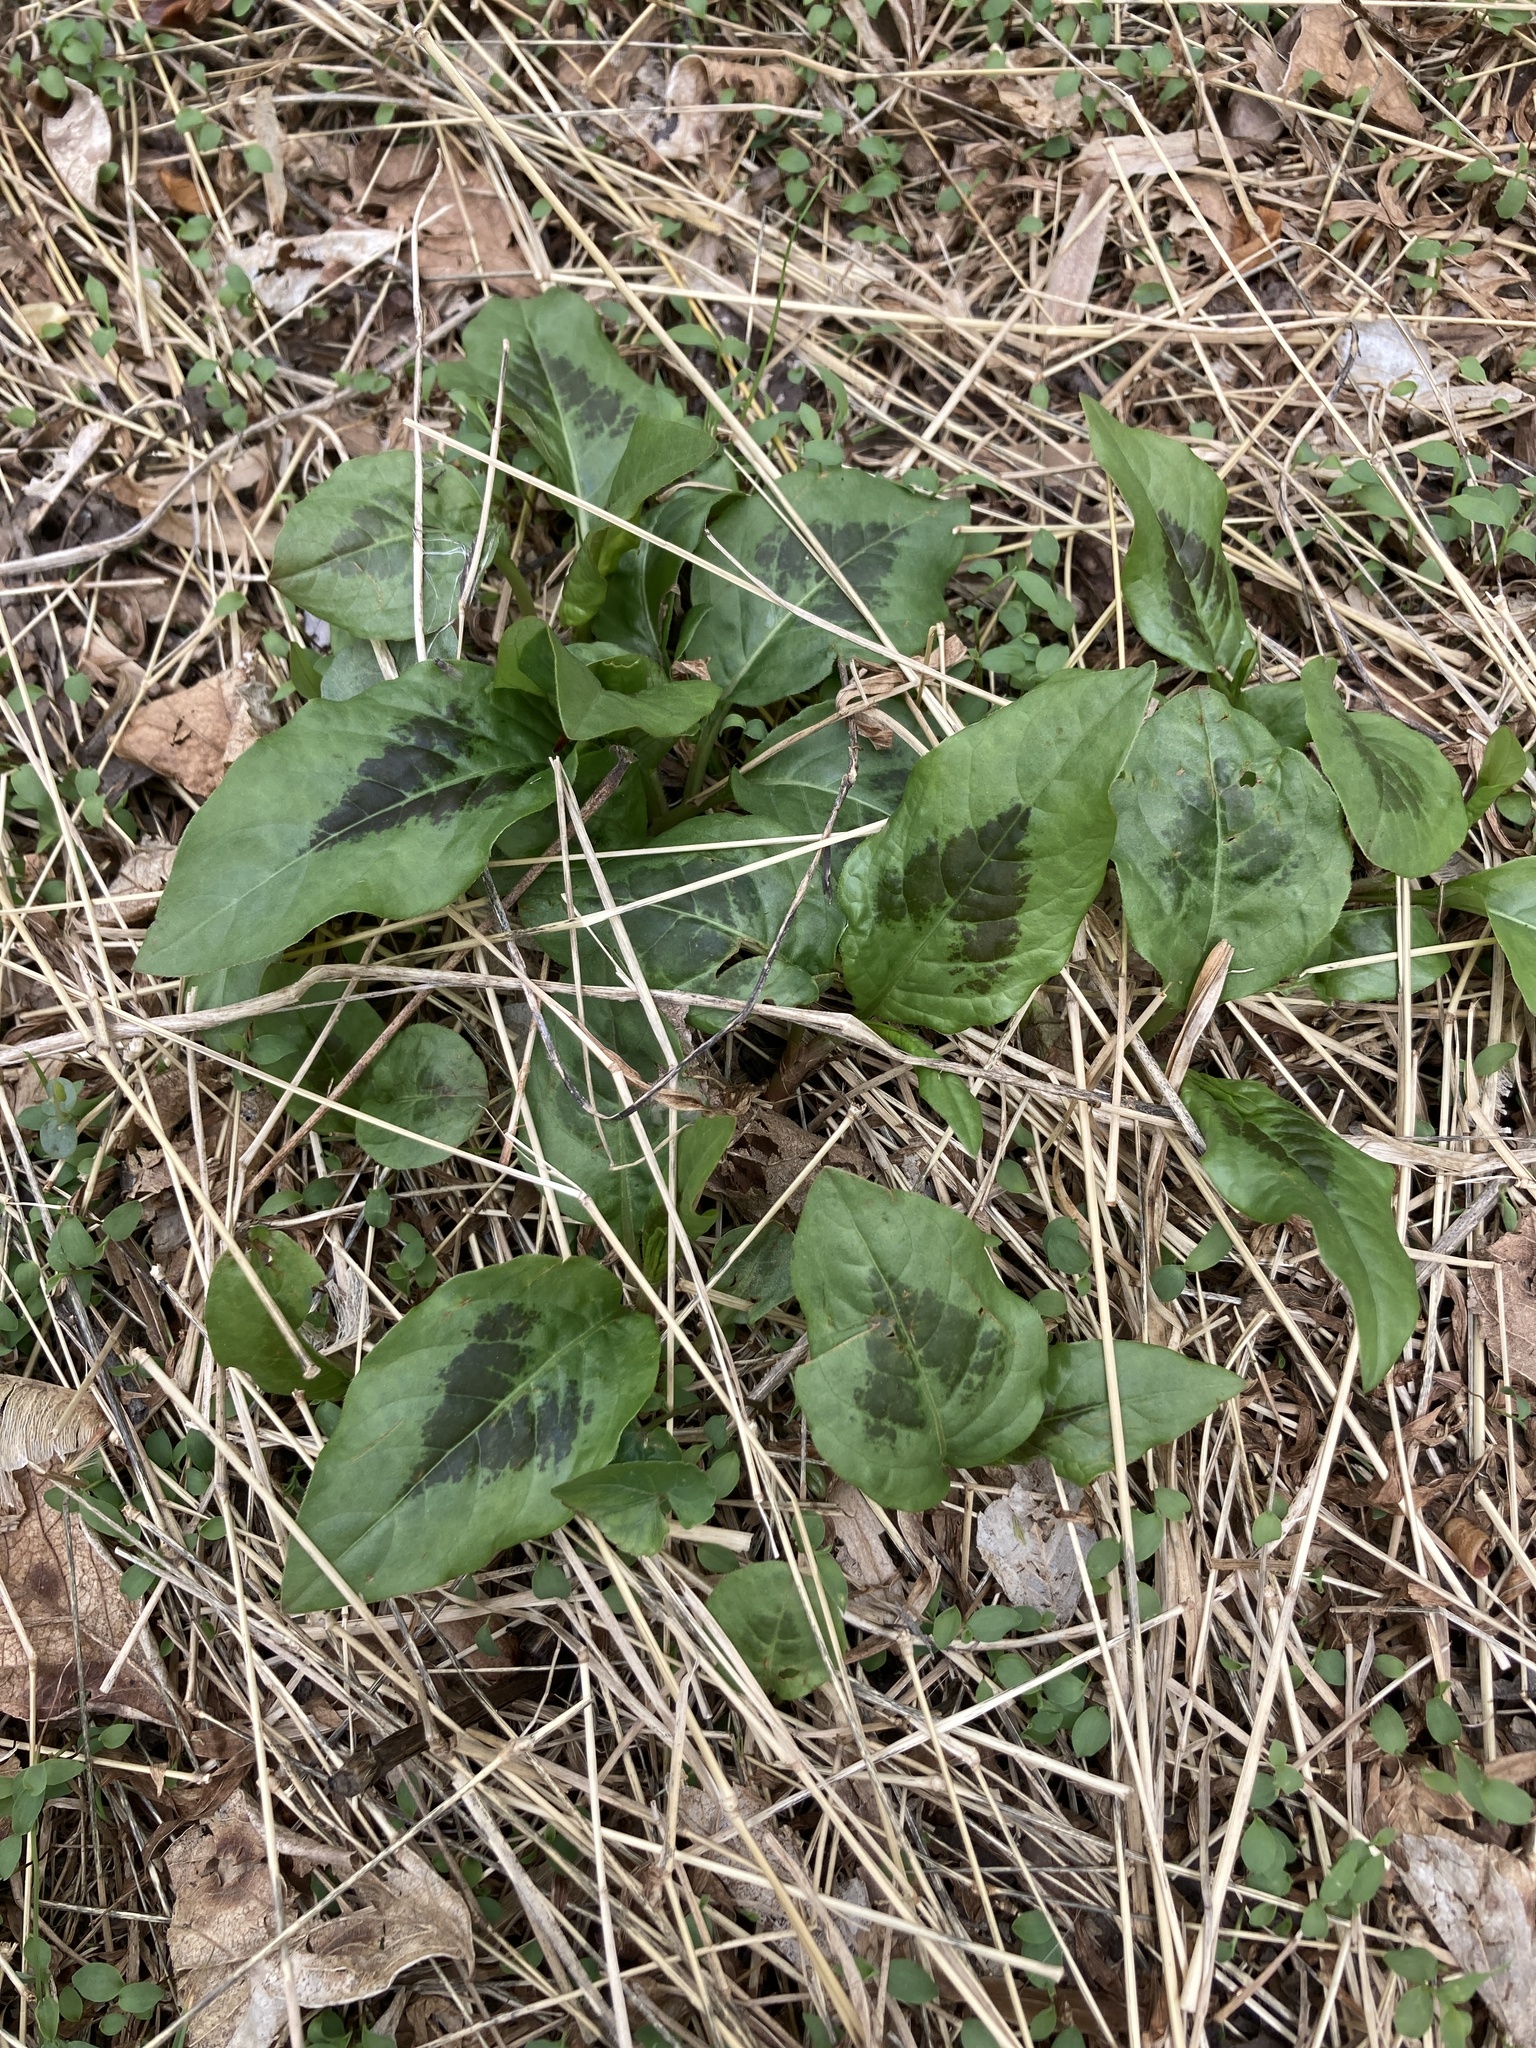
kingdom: Plantae
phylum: Tracheophyta
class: Magnoliopsida
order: Caryophyllales
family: Polygonaceae
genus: Persicaria
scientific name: Persicaria virginiana
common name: Jumpseed
